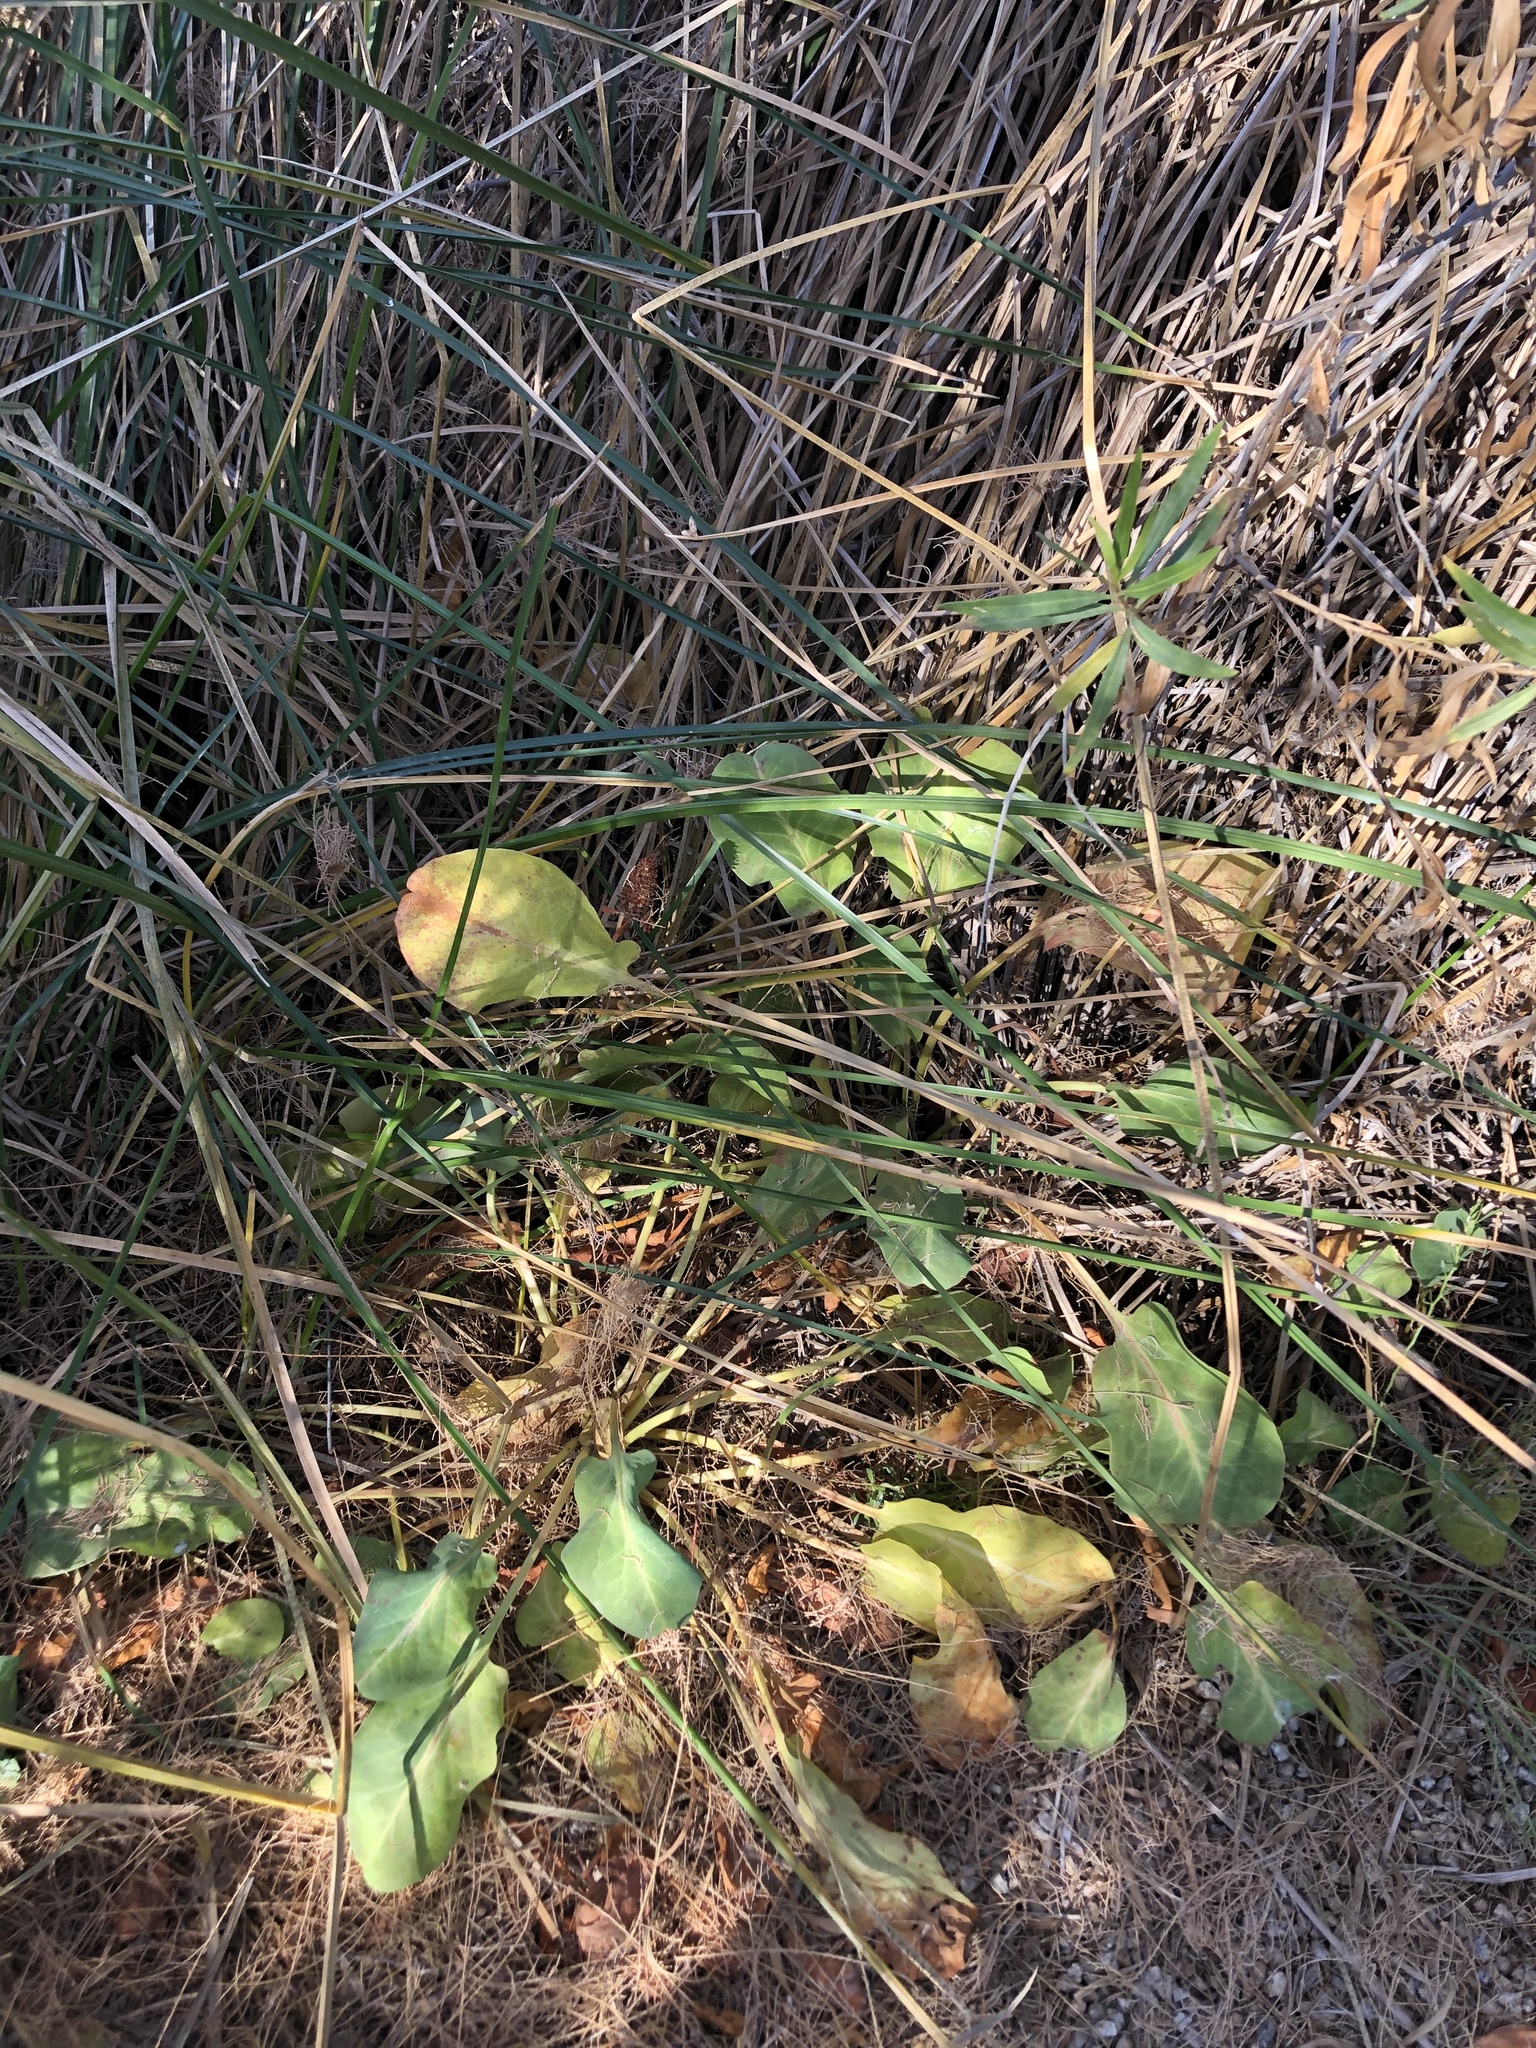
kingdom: Plantae
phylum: Tracheophyta
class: Magnoliopsida
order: Piperales
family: Saururaceae
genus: Anemopsis
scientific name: Anemopsis californica
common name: Apache-beads
